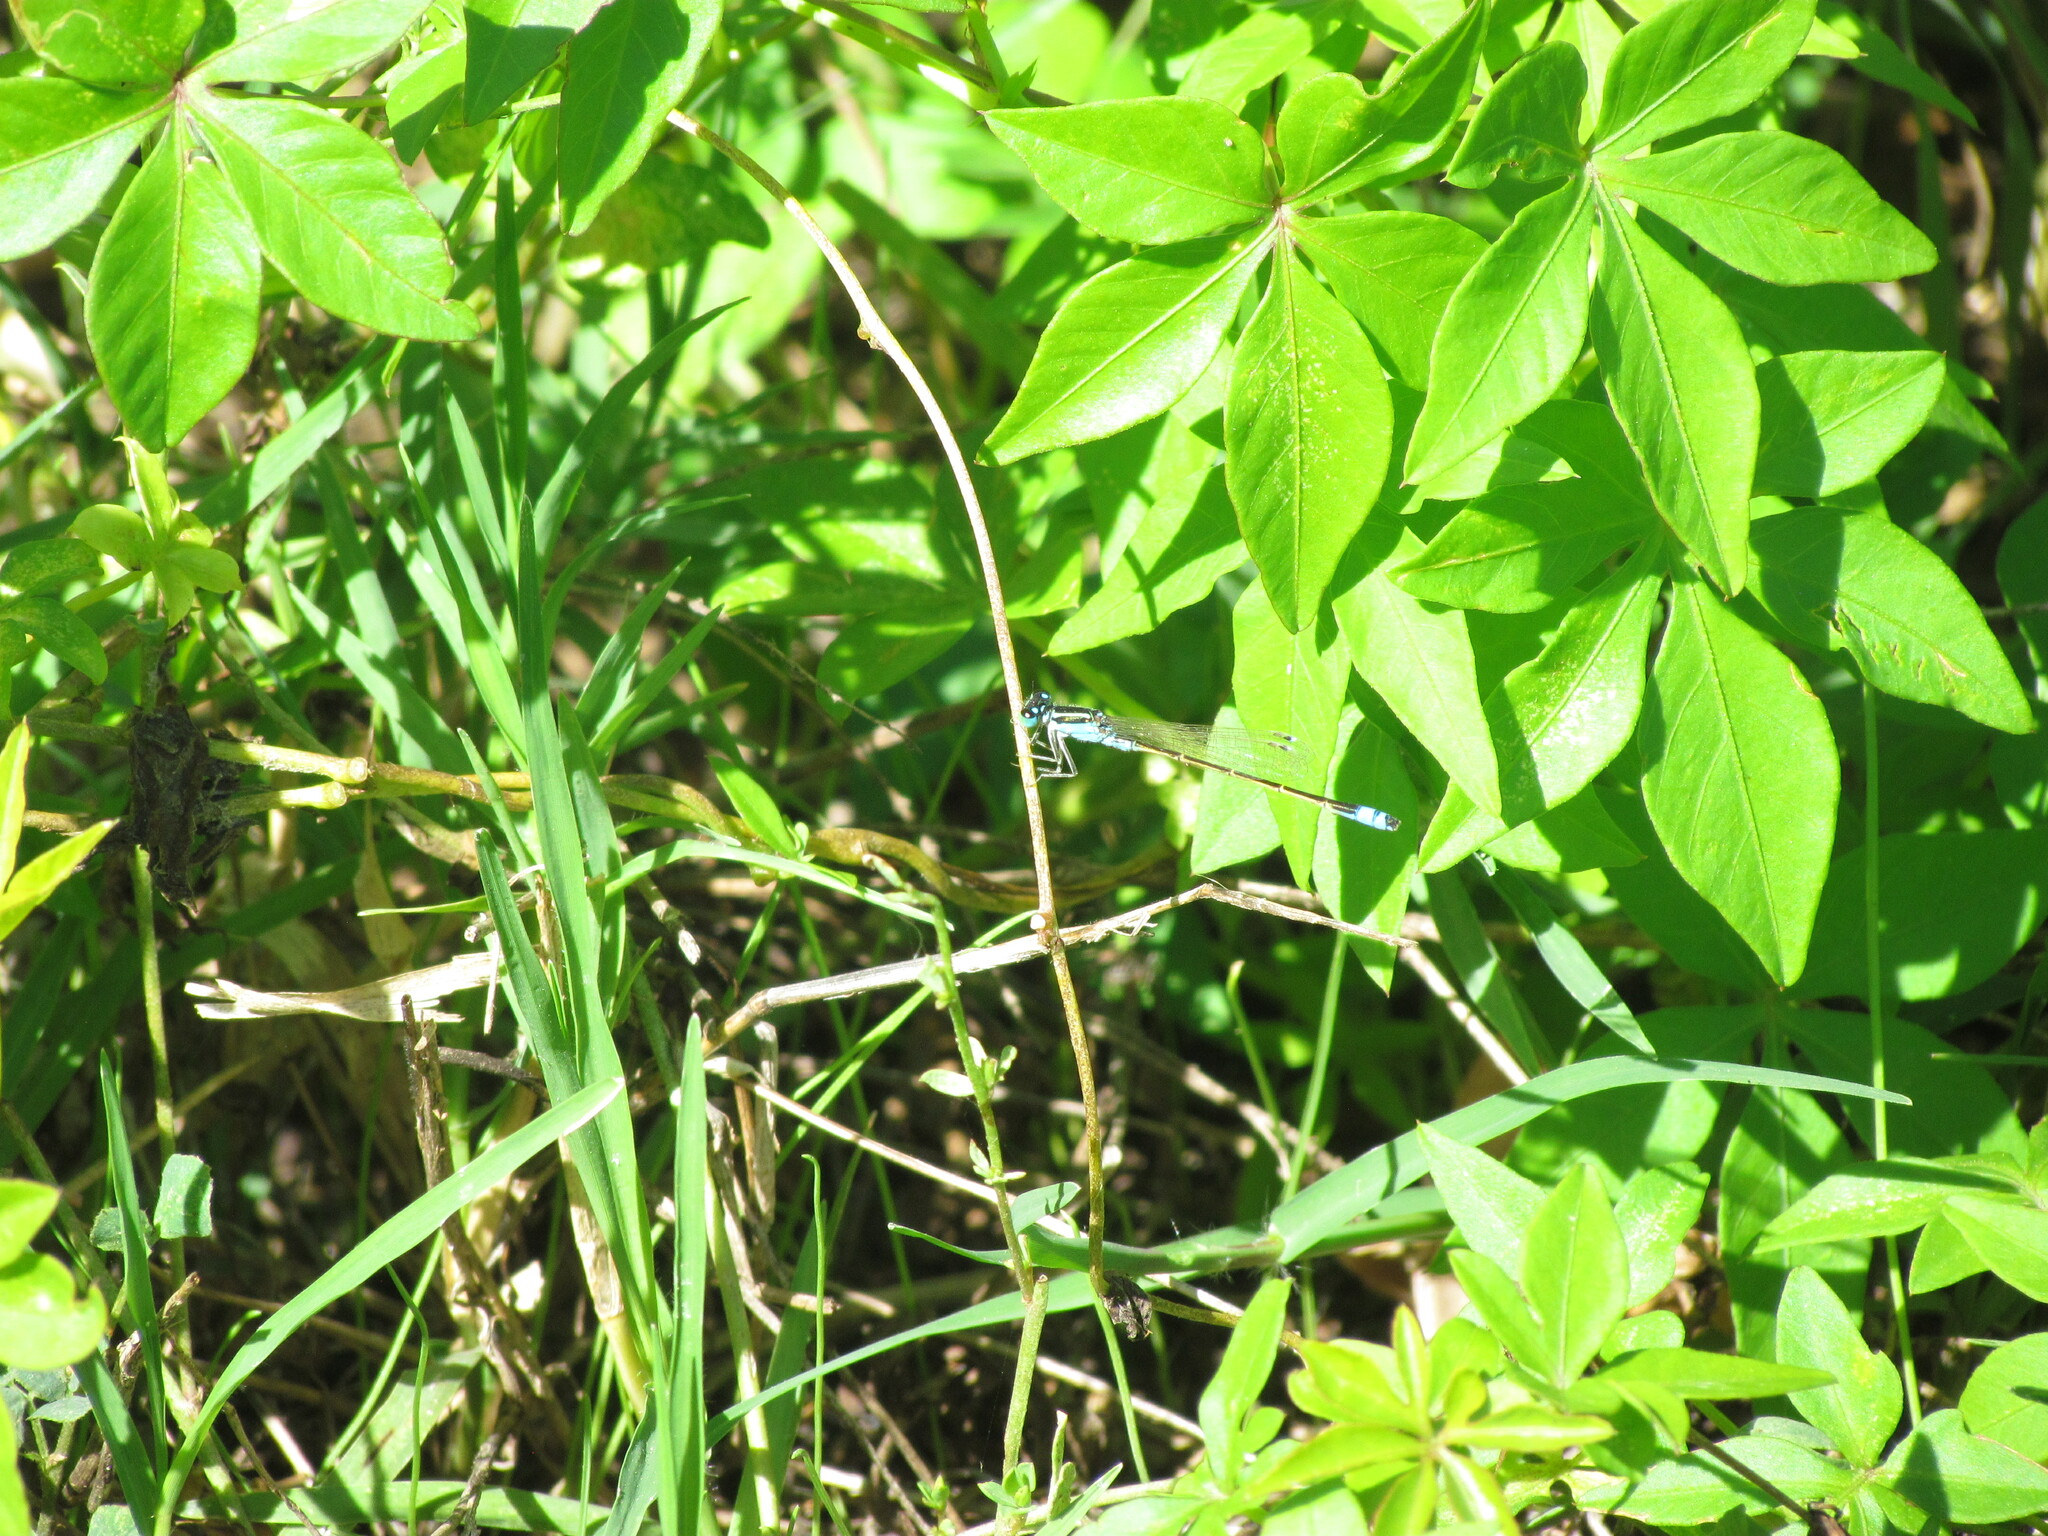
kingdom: Animalia
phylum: Arthropoda
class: Insecta
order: Odonata
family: Coenagrionidae
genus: Ischnura
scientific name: Ischnura fluviatilis
